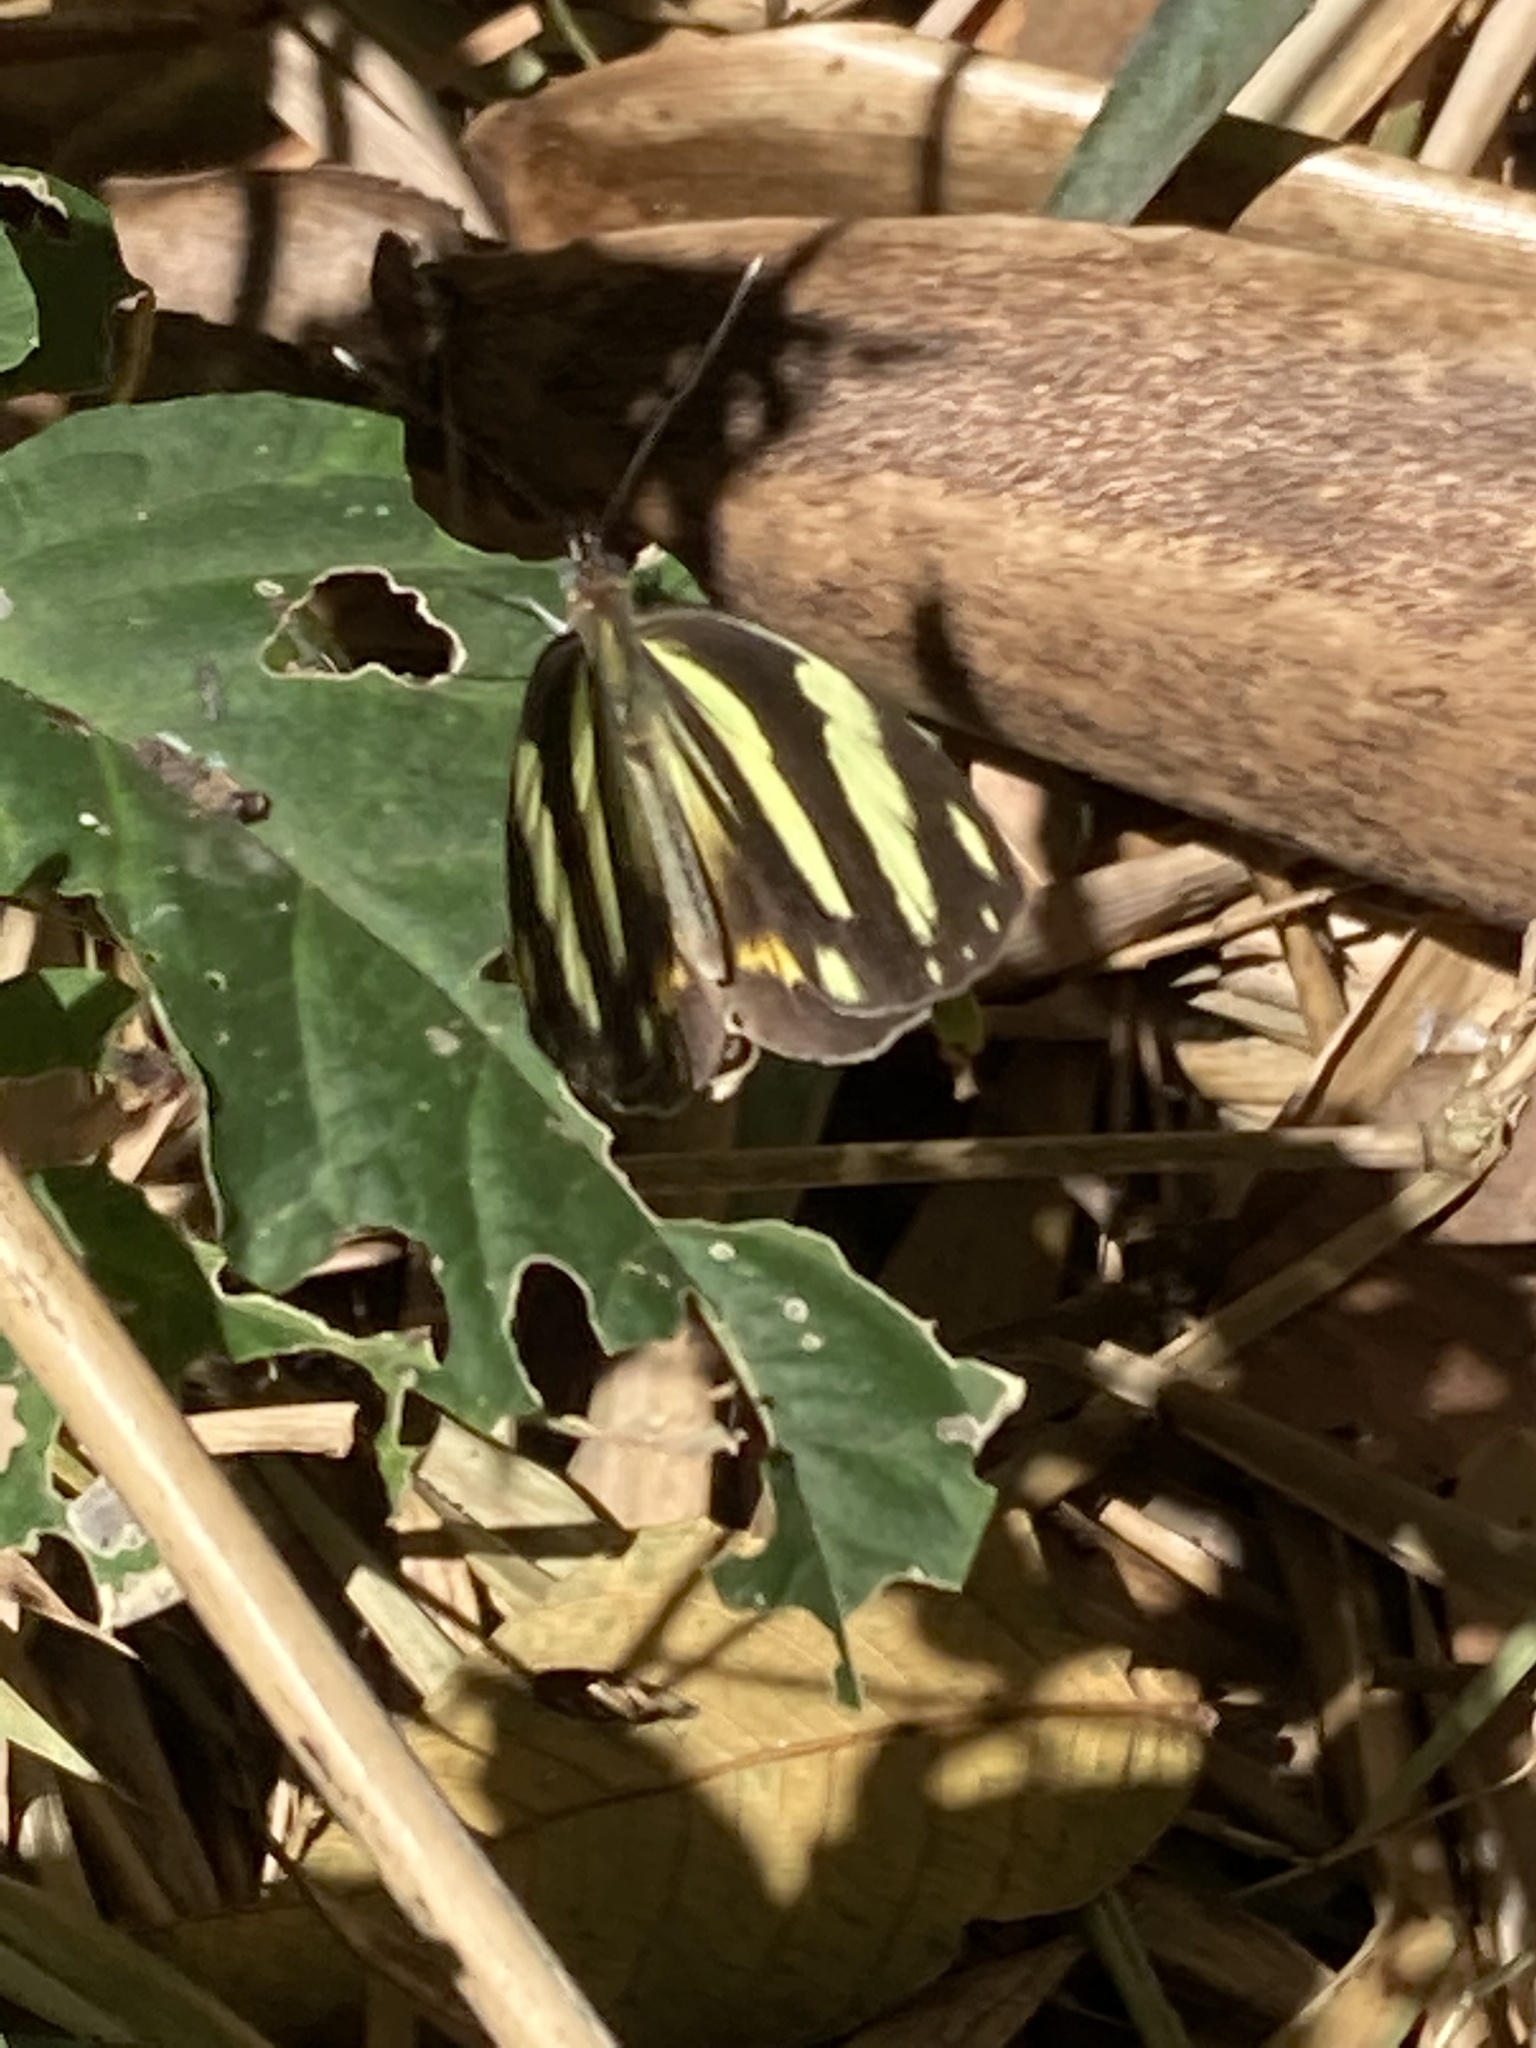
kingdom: Animalia
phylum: Arthropoda
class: Insecta
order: Lepidoptera
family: Pieridae
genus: Pieriballia
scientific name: Pieriballia viardi
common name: Painted white
